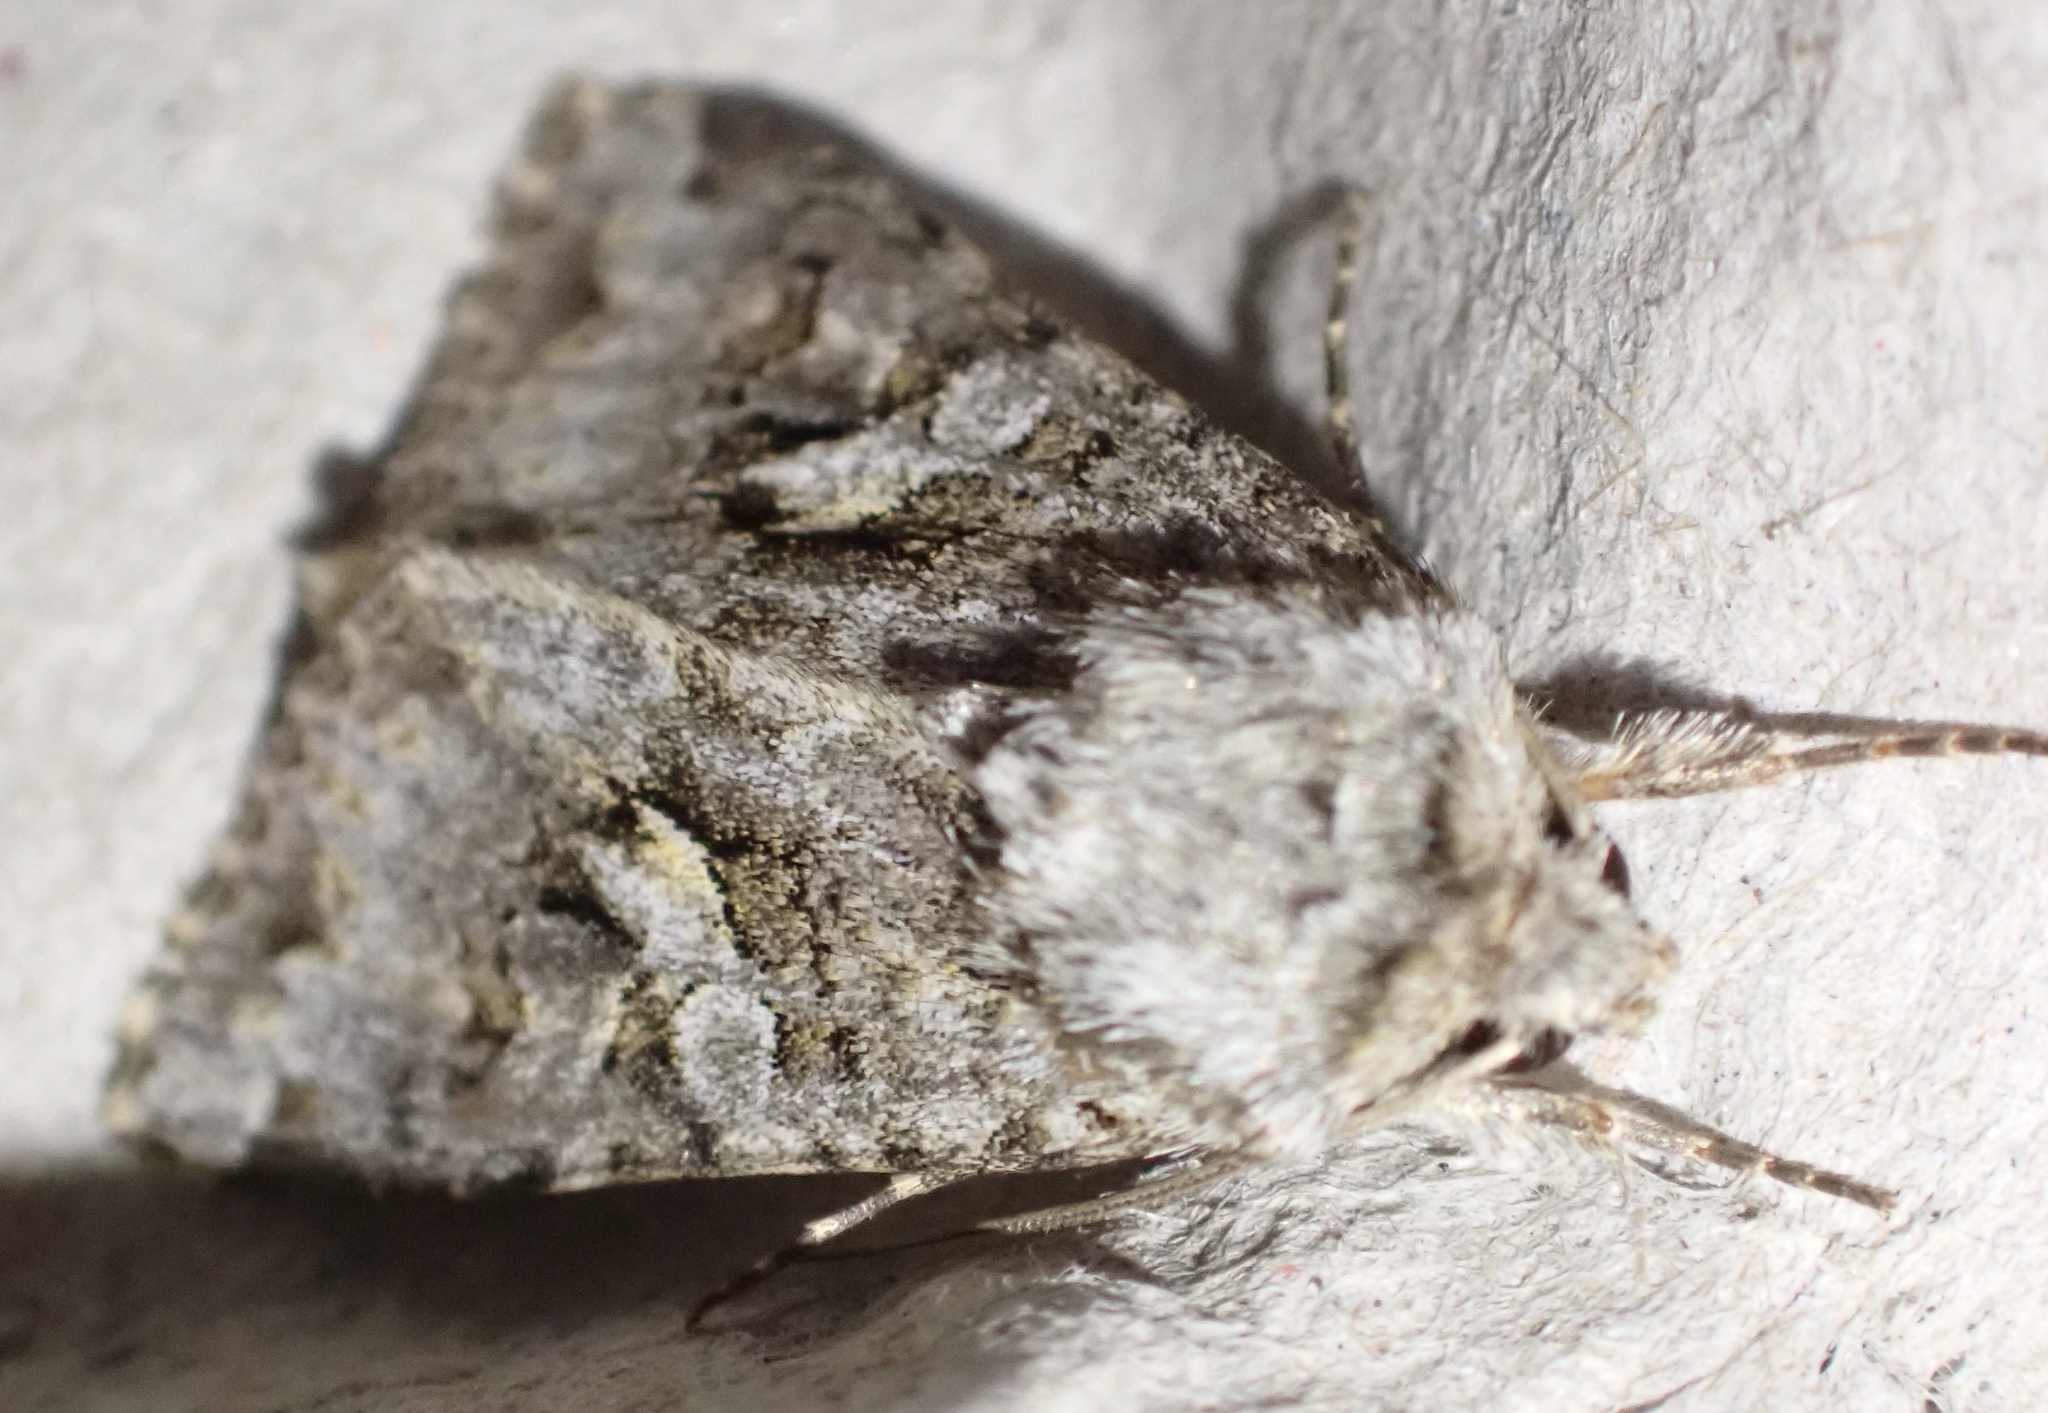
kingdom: Animalia
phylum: Arthropoda
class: Insecta
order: Lepidoptera
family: Noctuidae
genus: Hada
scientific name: Hada plebeja
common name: Shears
